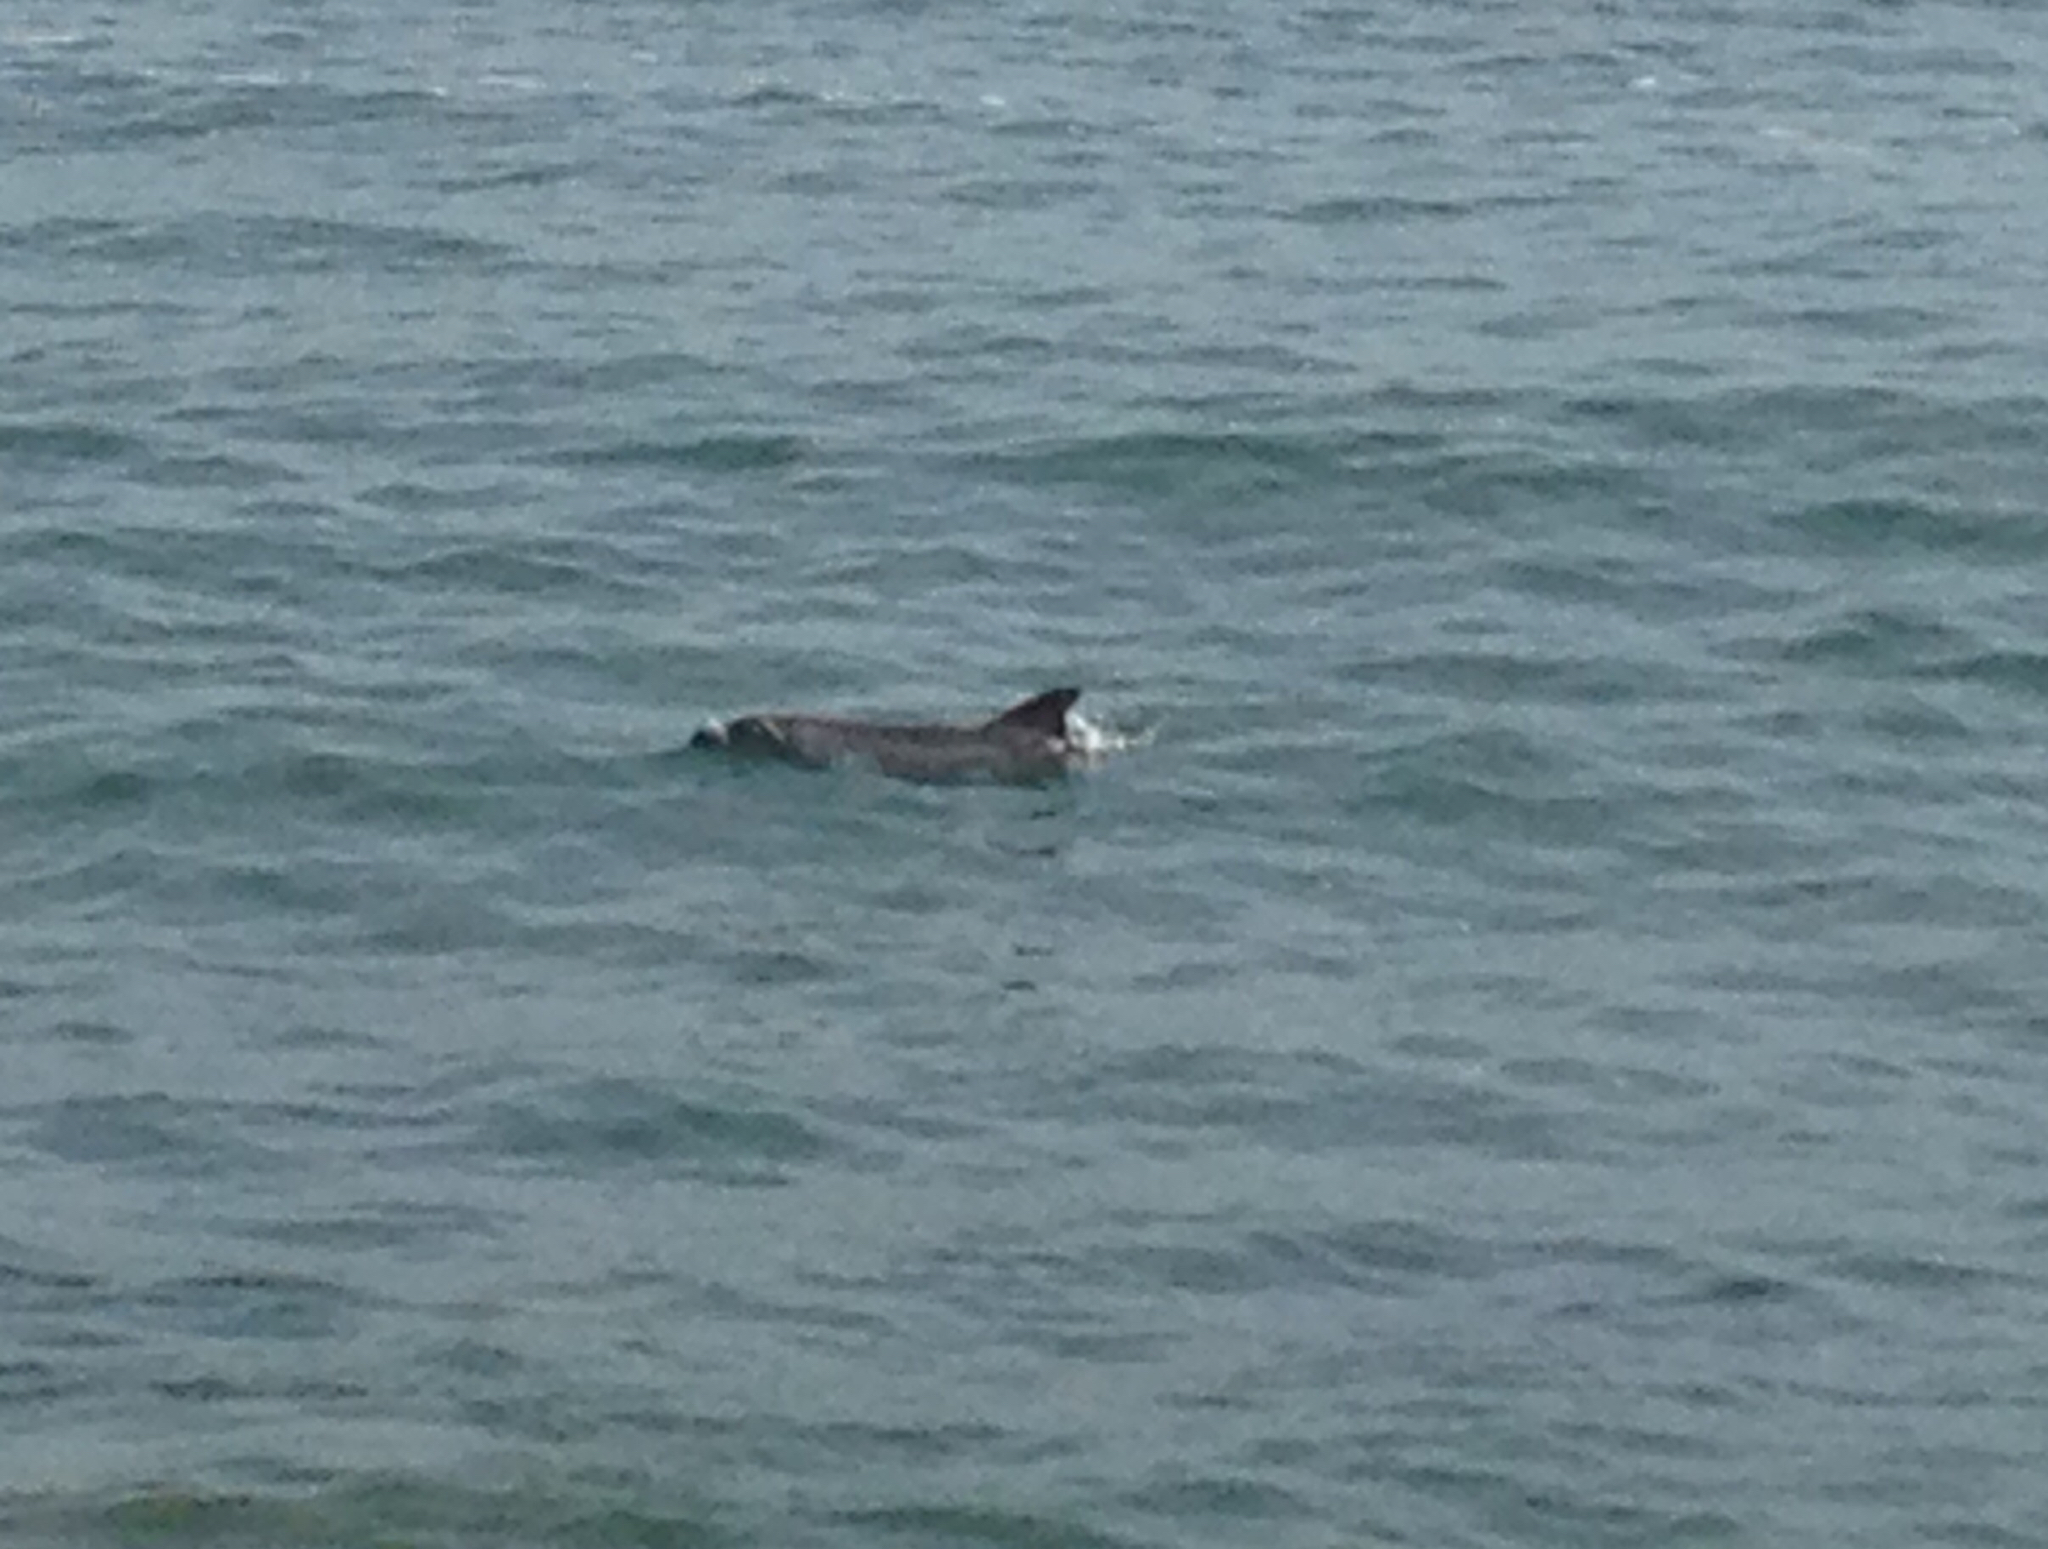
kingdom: Animalia
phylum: Chordata
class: Mammalia
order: Cetacea
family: Delphinidae
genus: Tursiops
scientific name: Tursiops truncatus
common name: Bottlenose dolphin
